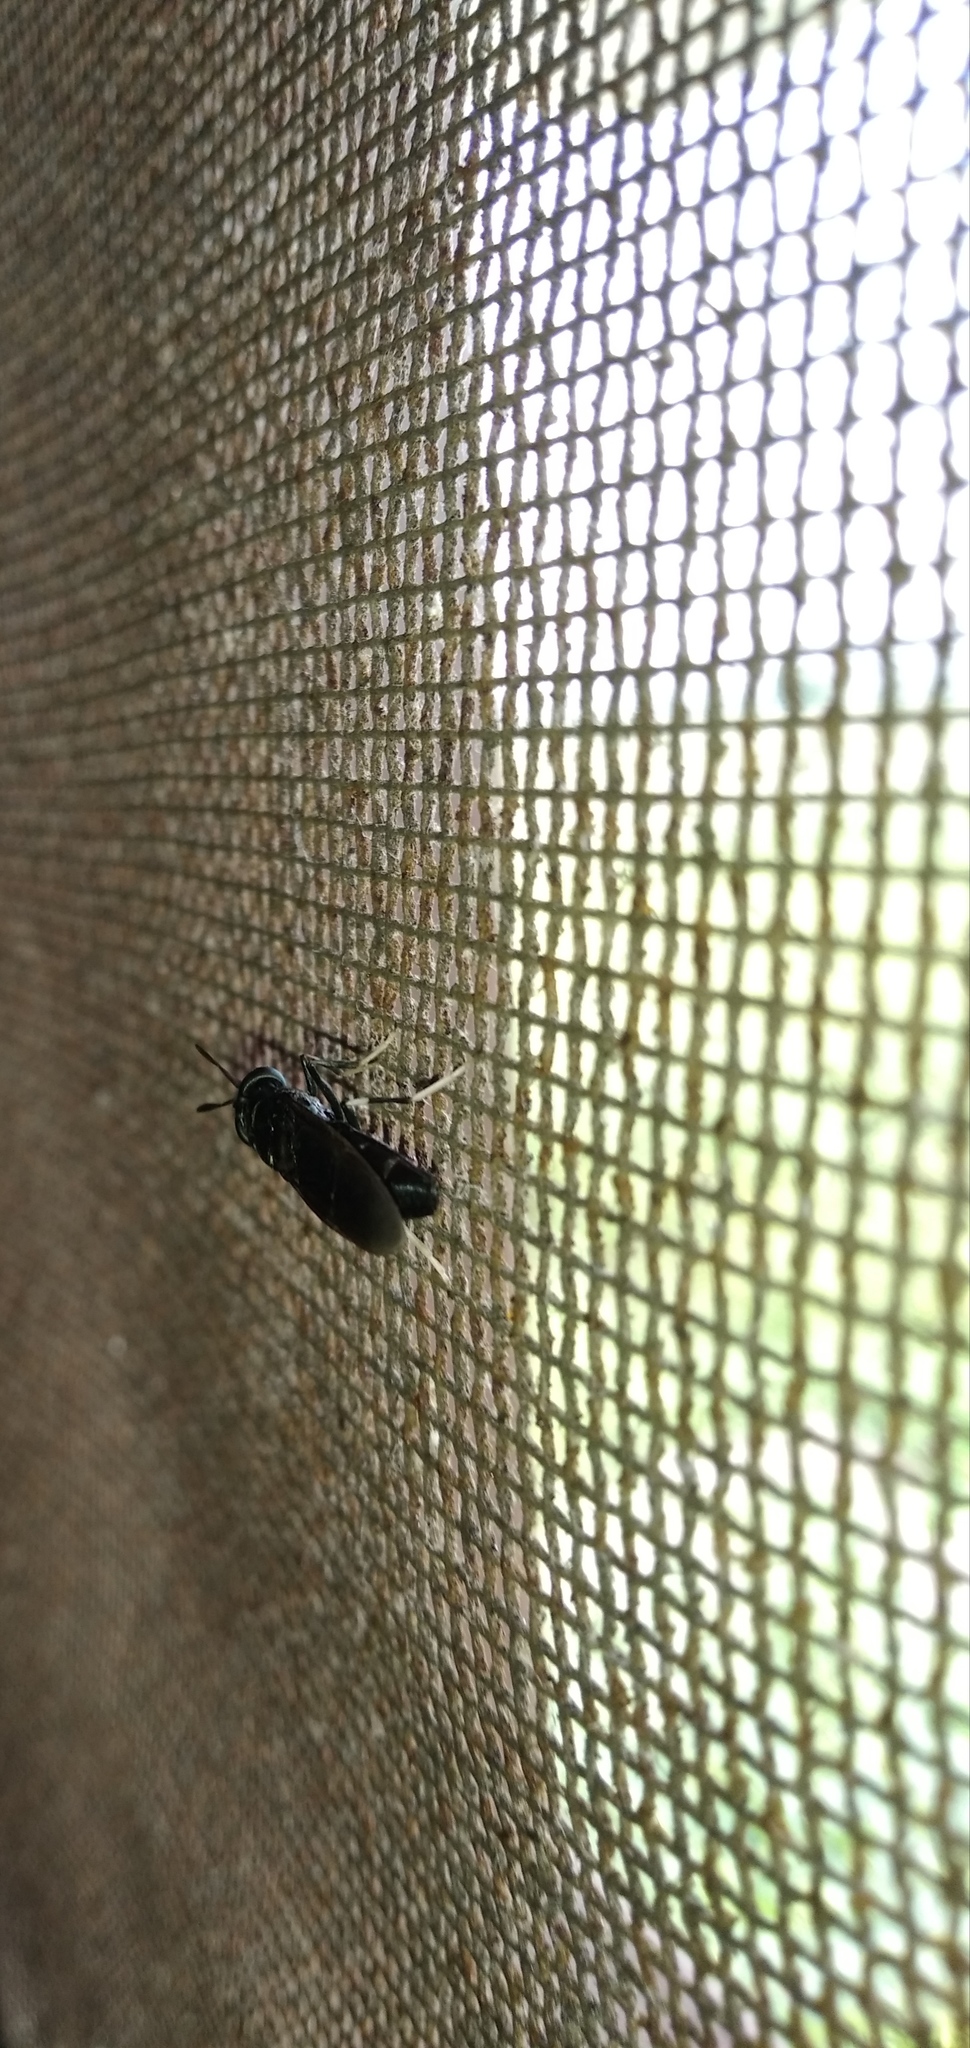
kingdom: Animalia
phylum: Arthropoda
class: Insecta
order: Diptera
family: Stratiomyidae
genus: Hermetia
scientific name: Hermetia illucens
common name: Black soldier fly
